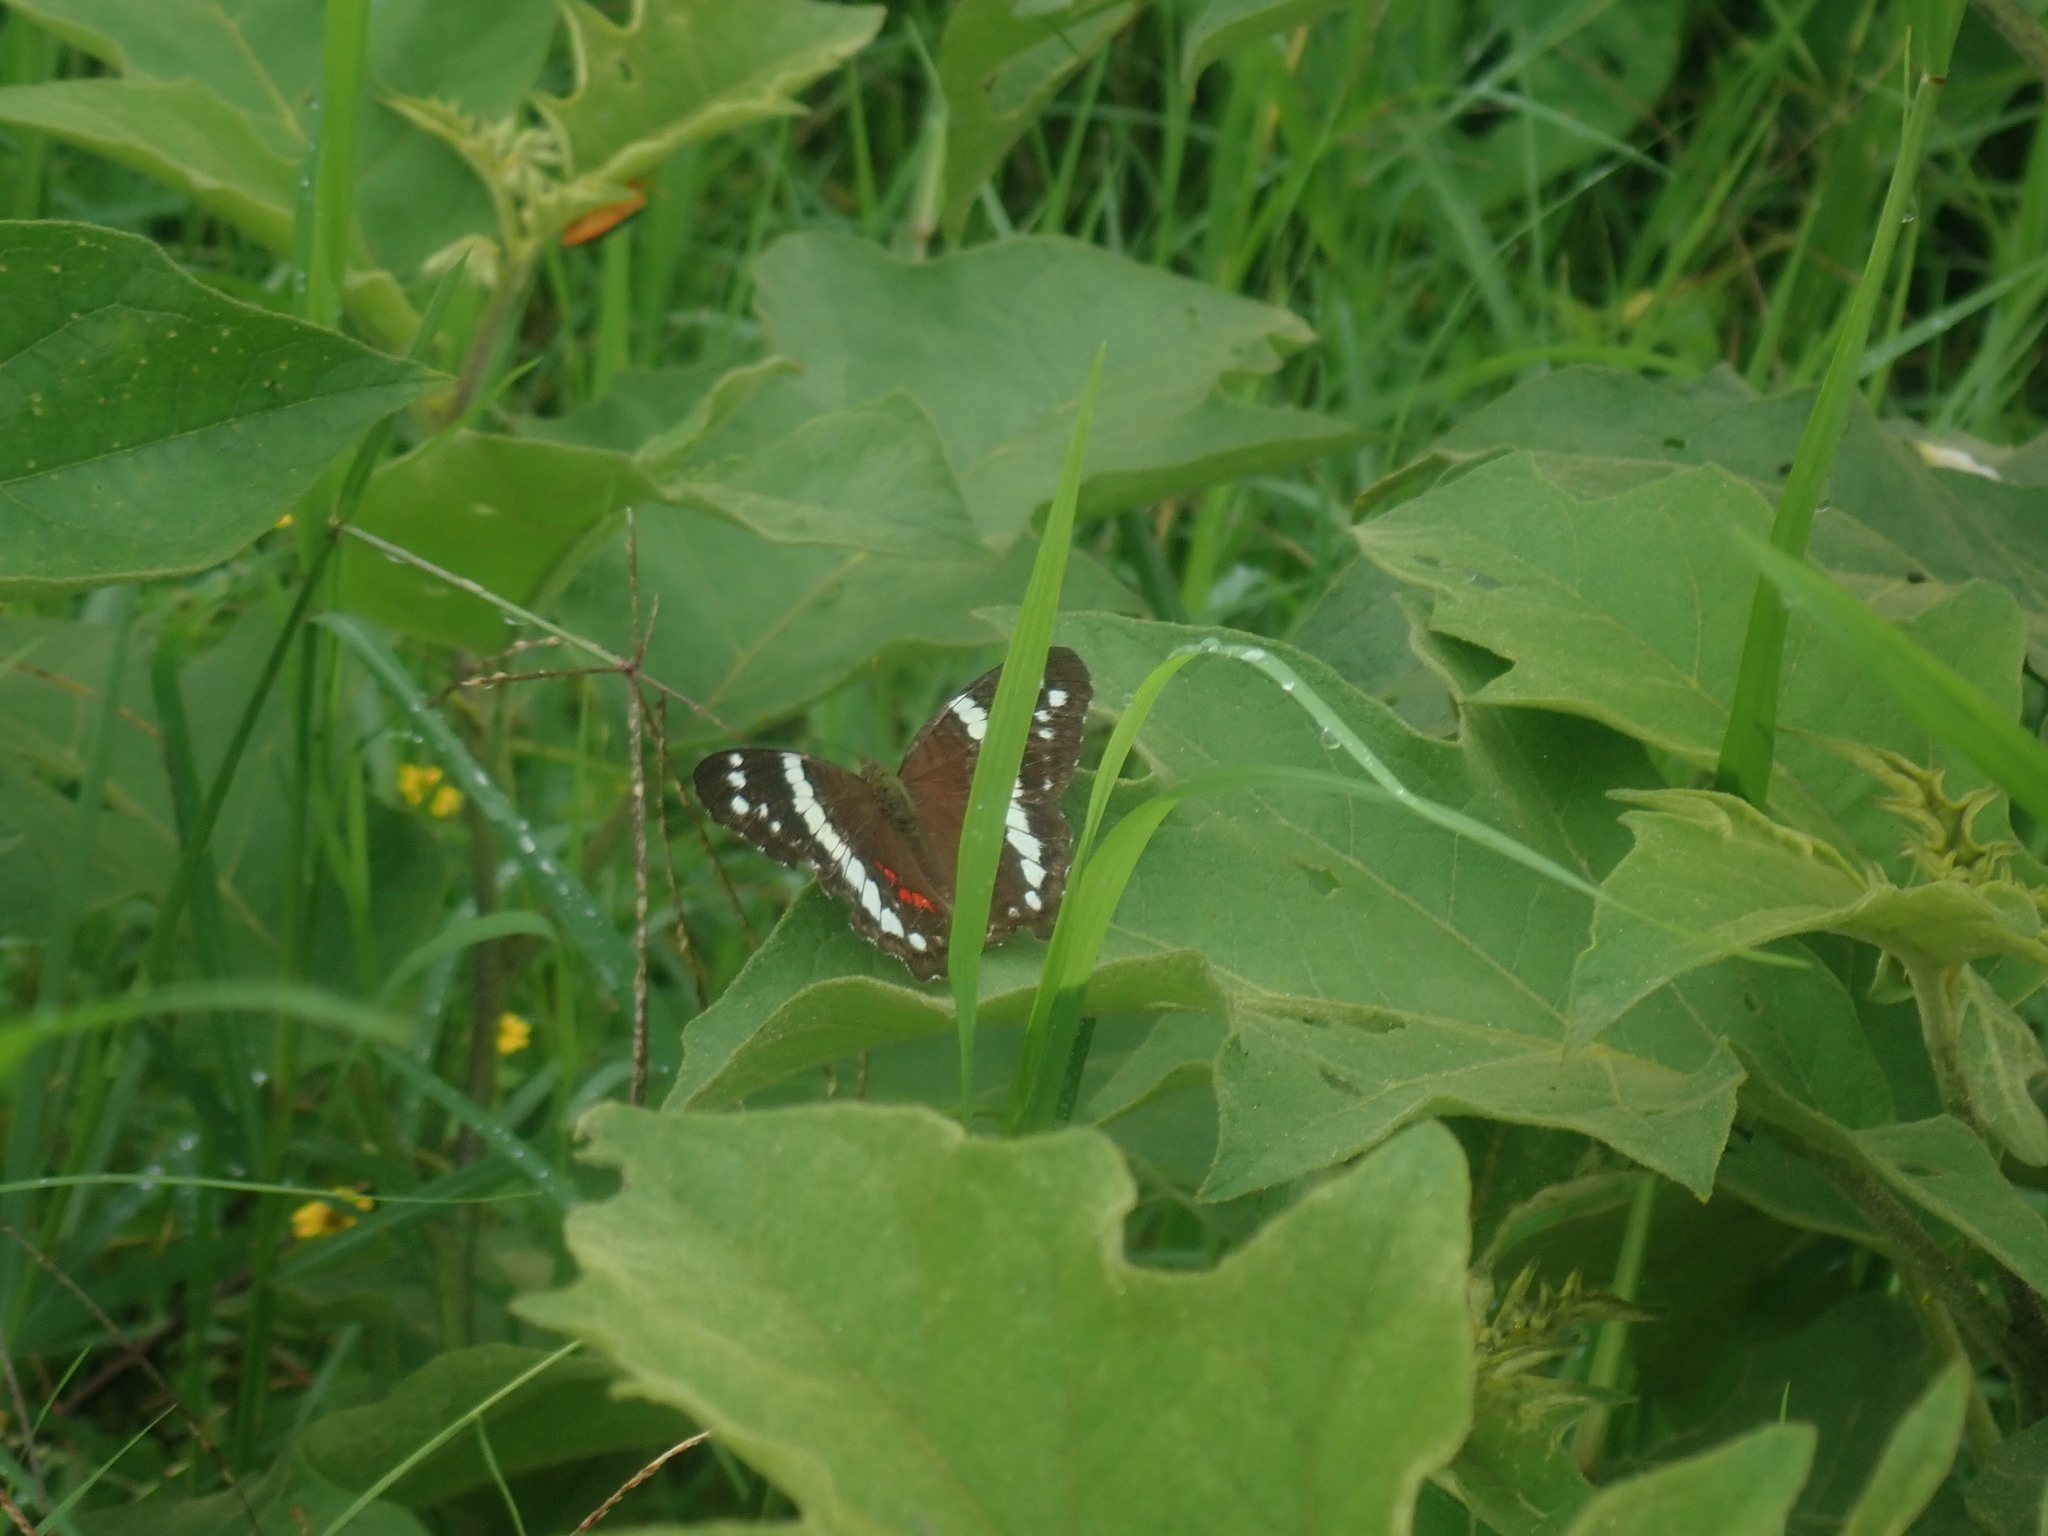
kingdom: Animalia
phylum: Arthropoda
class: Insecta
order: Lepidoptera
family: Nymphalidae
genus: Anartia
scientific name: Anartia fatima
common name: Banded peacock
